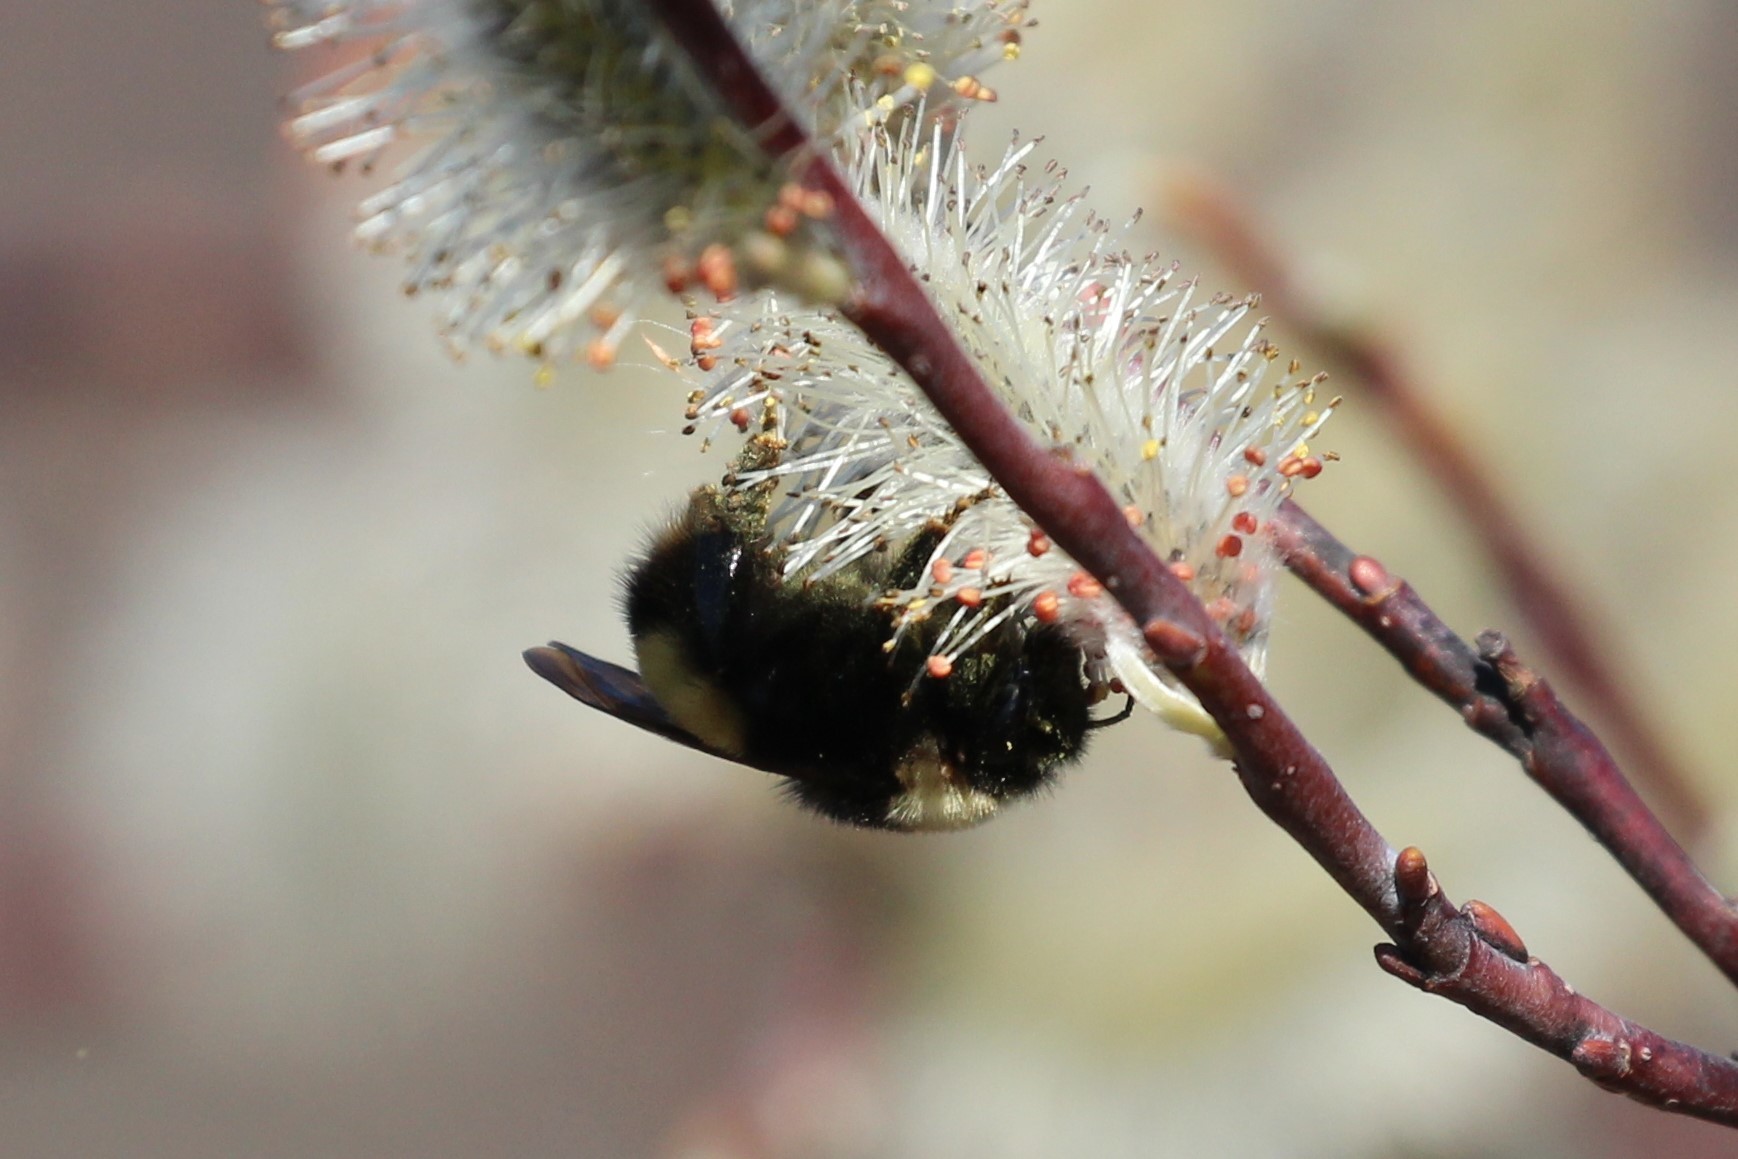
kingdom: Animalia
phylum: Arthropoda
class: Insecta
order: Hymenoptera
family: Apidae
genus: Bombus
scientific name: Bombus terricola
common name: Yellow-banded bumble bee
